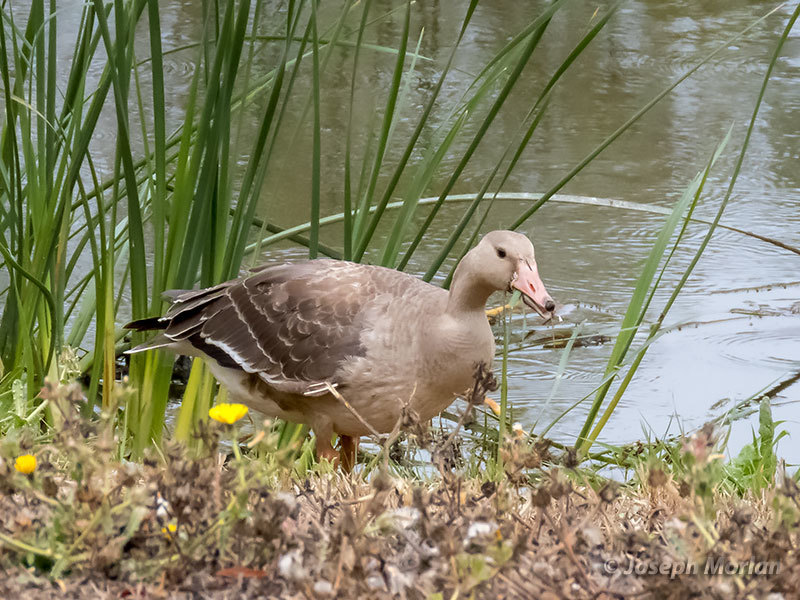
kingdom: Animalia
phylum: Chordata
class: Aves
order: Anseriformes
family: Anatidae
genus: Anser
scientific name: Anser albifrons
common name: Greater white-fronted goose
